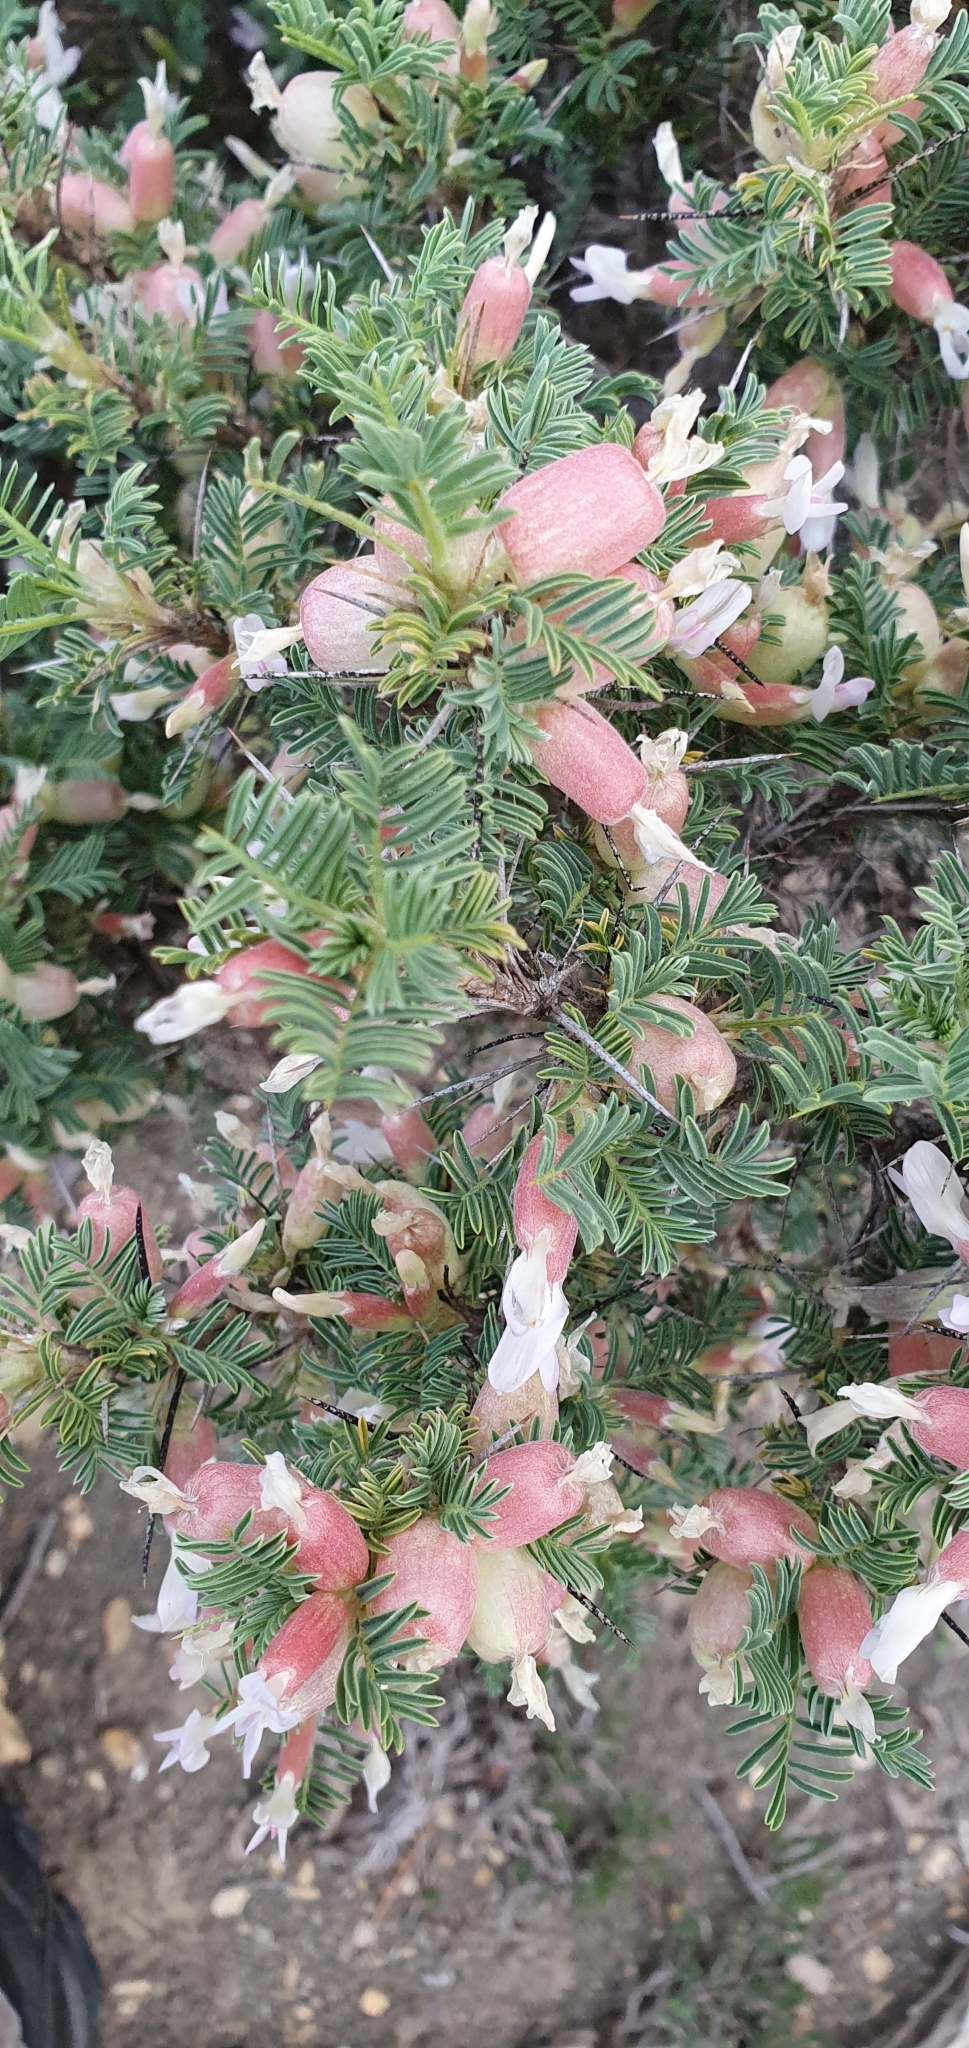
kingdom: Plantae
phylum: Tracheophyta
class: Magnoliopsida
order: Fabales
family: Fabaceae
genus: Astragalus
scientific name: Astragalus armatus
